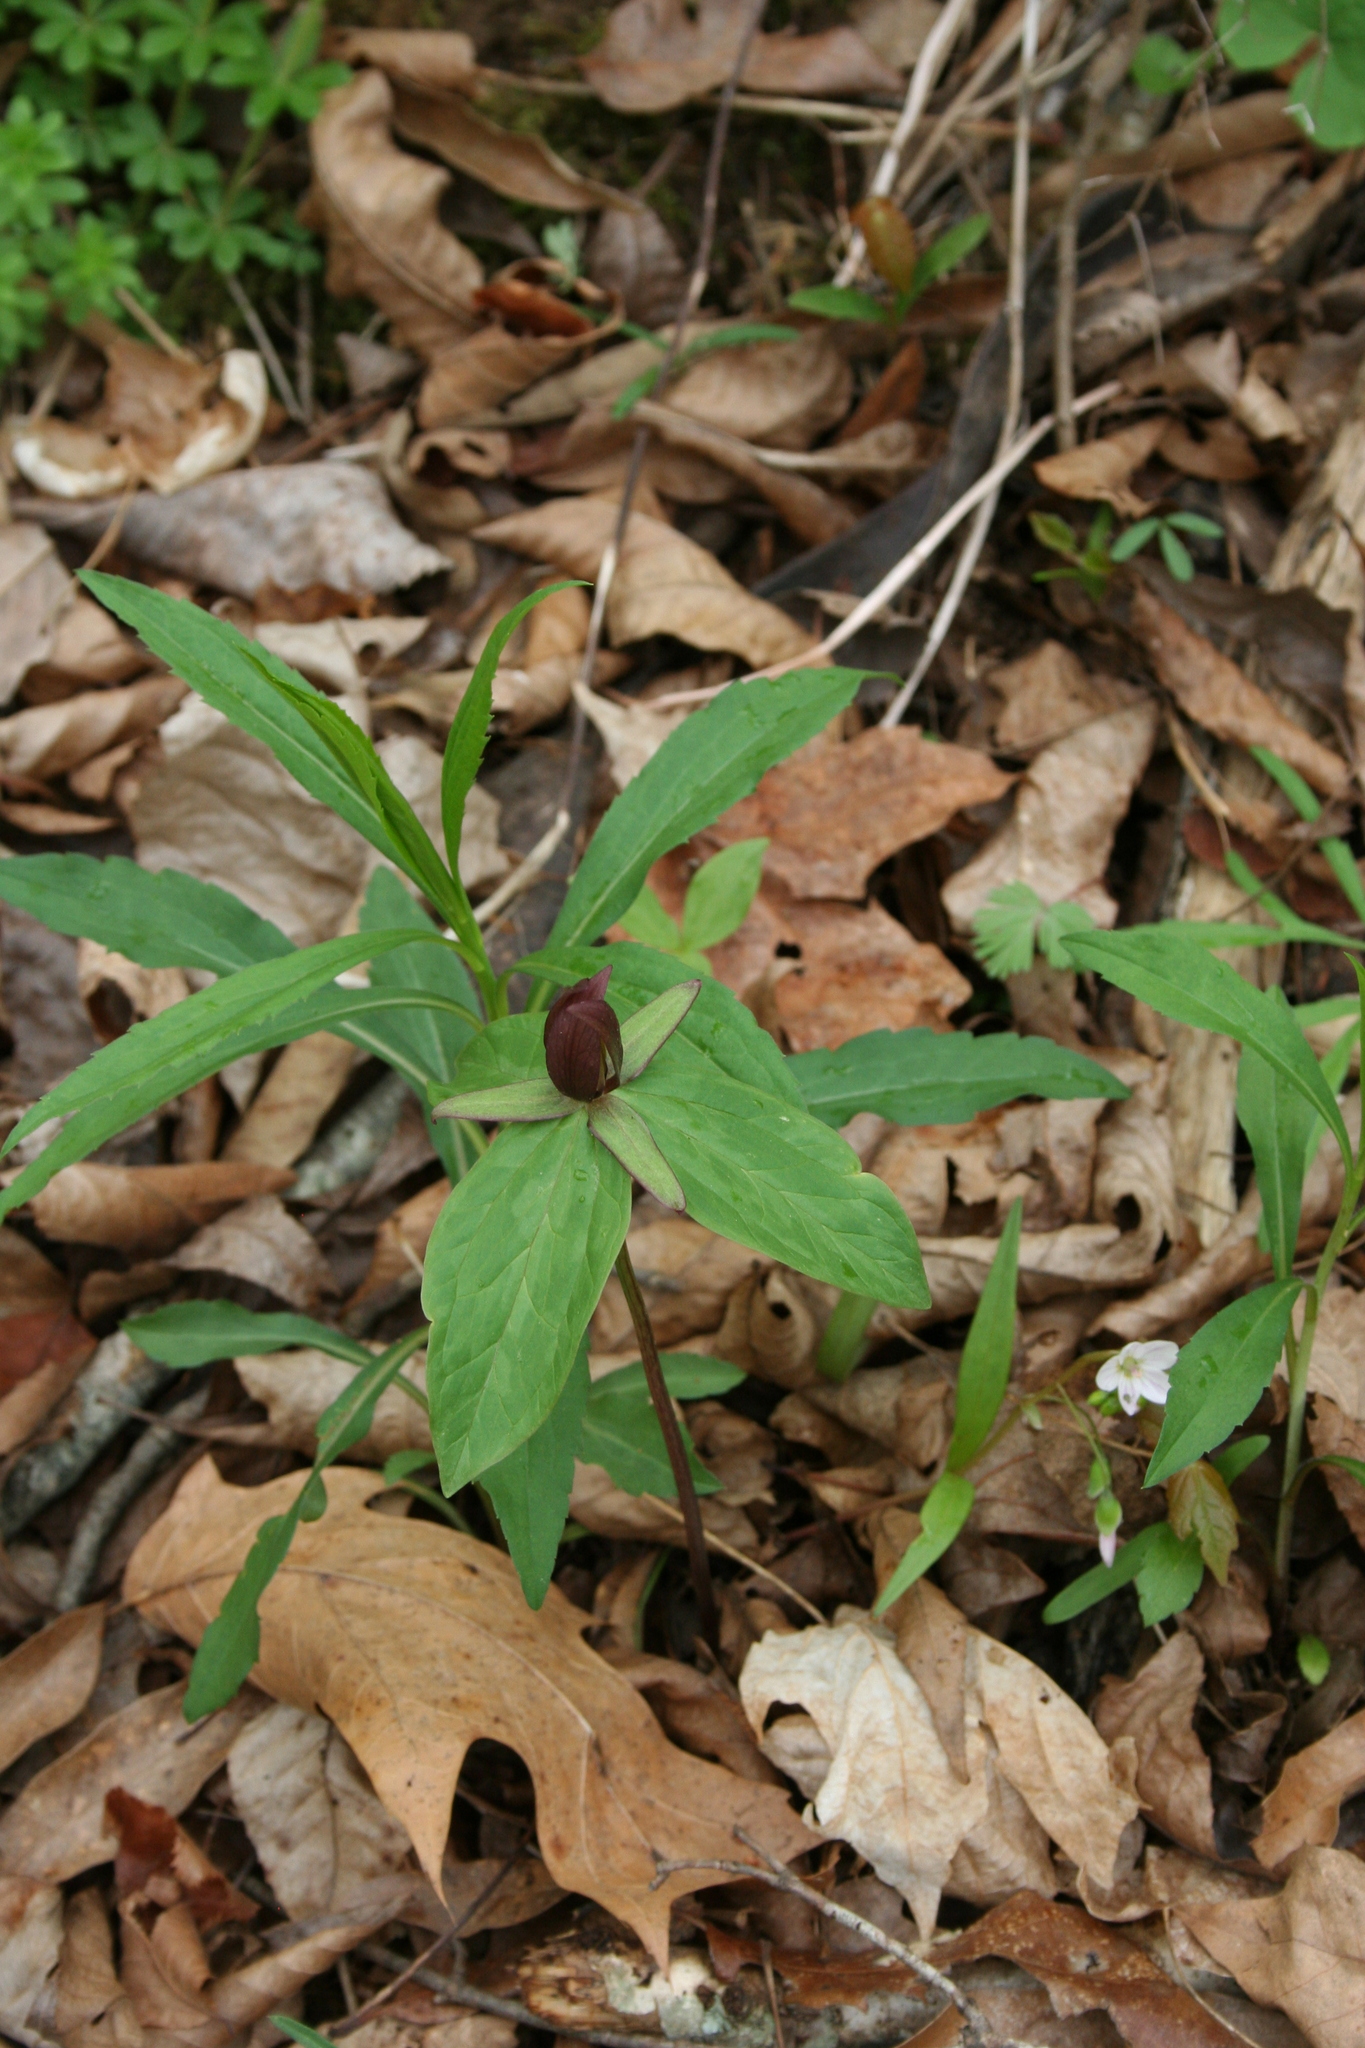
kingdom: Plantae
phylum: Tracheophyta
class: Liliopsida
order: Liliales
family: Melanthiaceae
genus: Trillium
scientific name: Trillium sessile
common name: Sessile trillium
